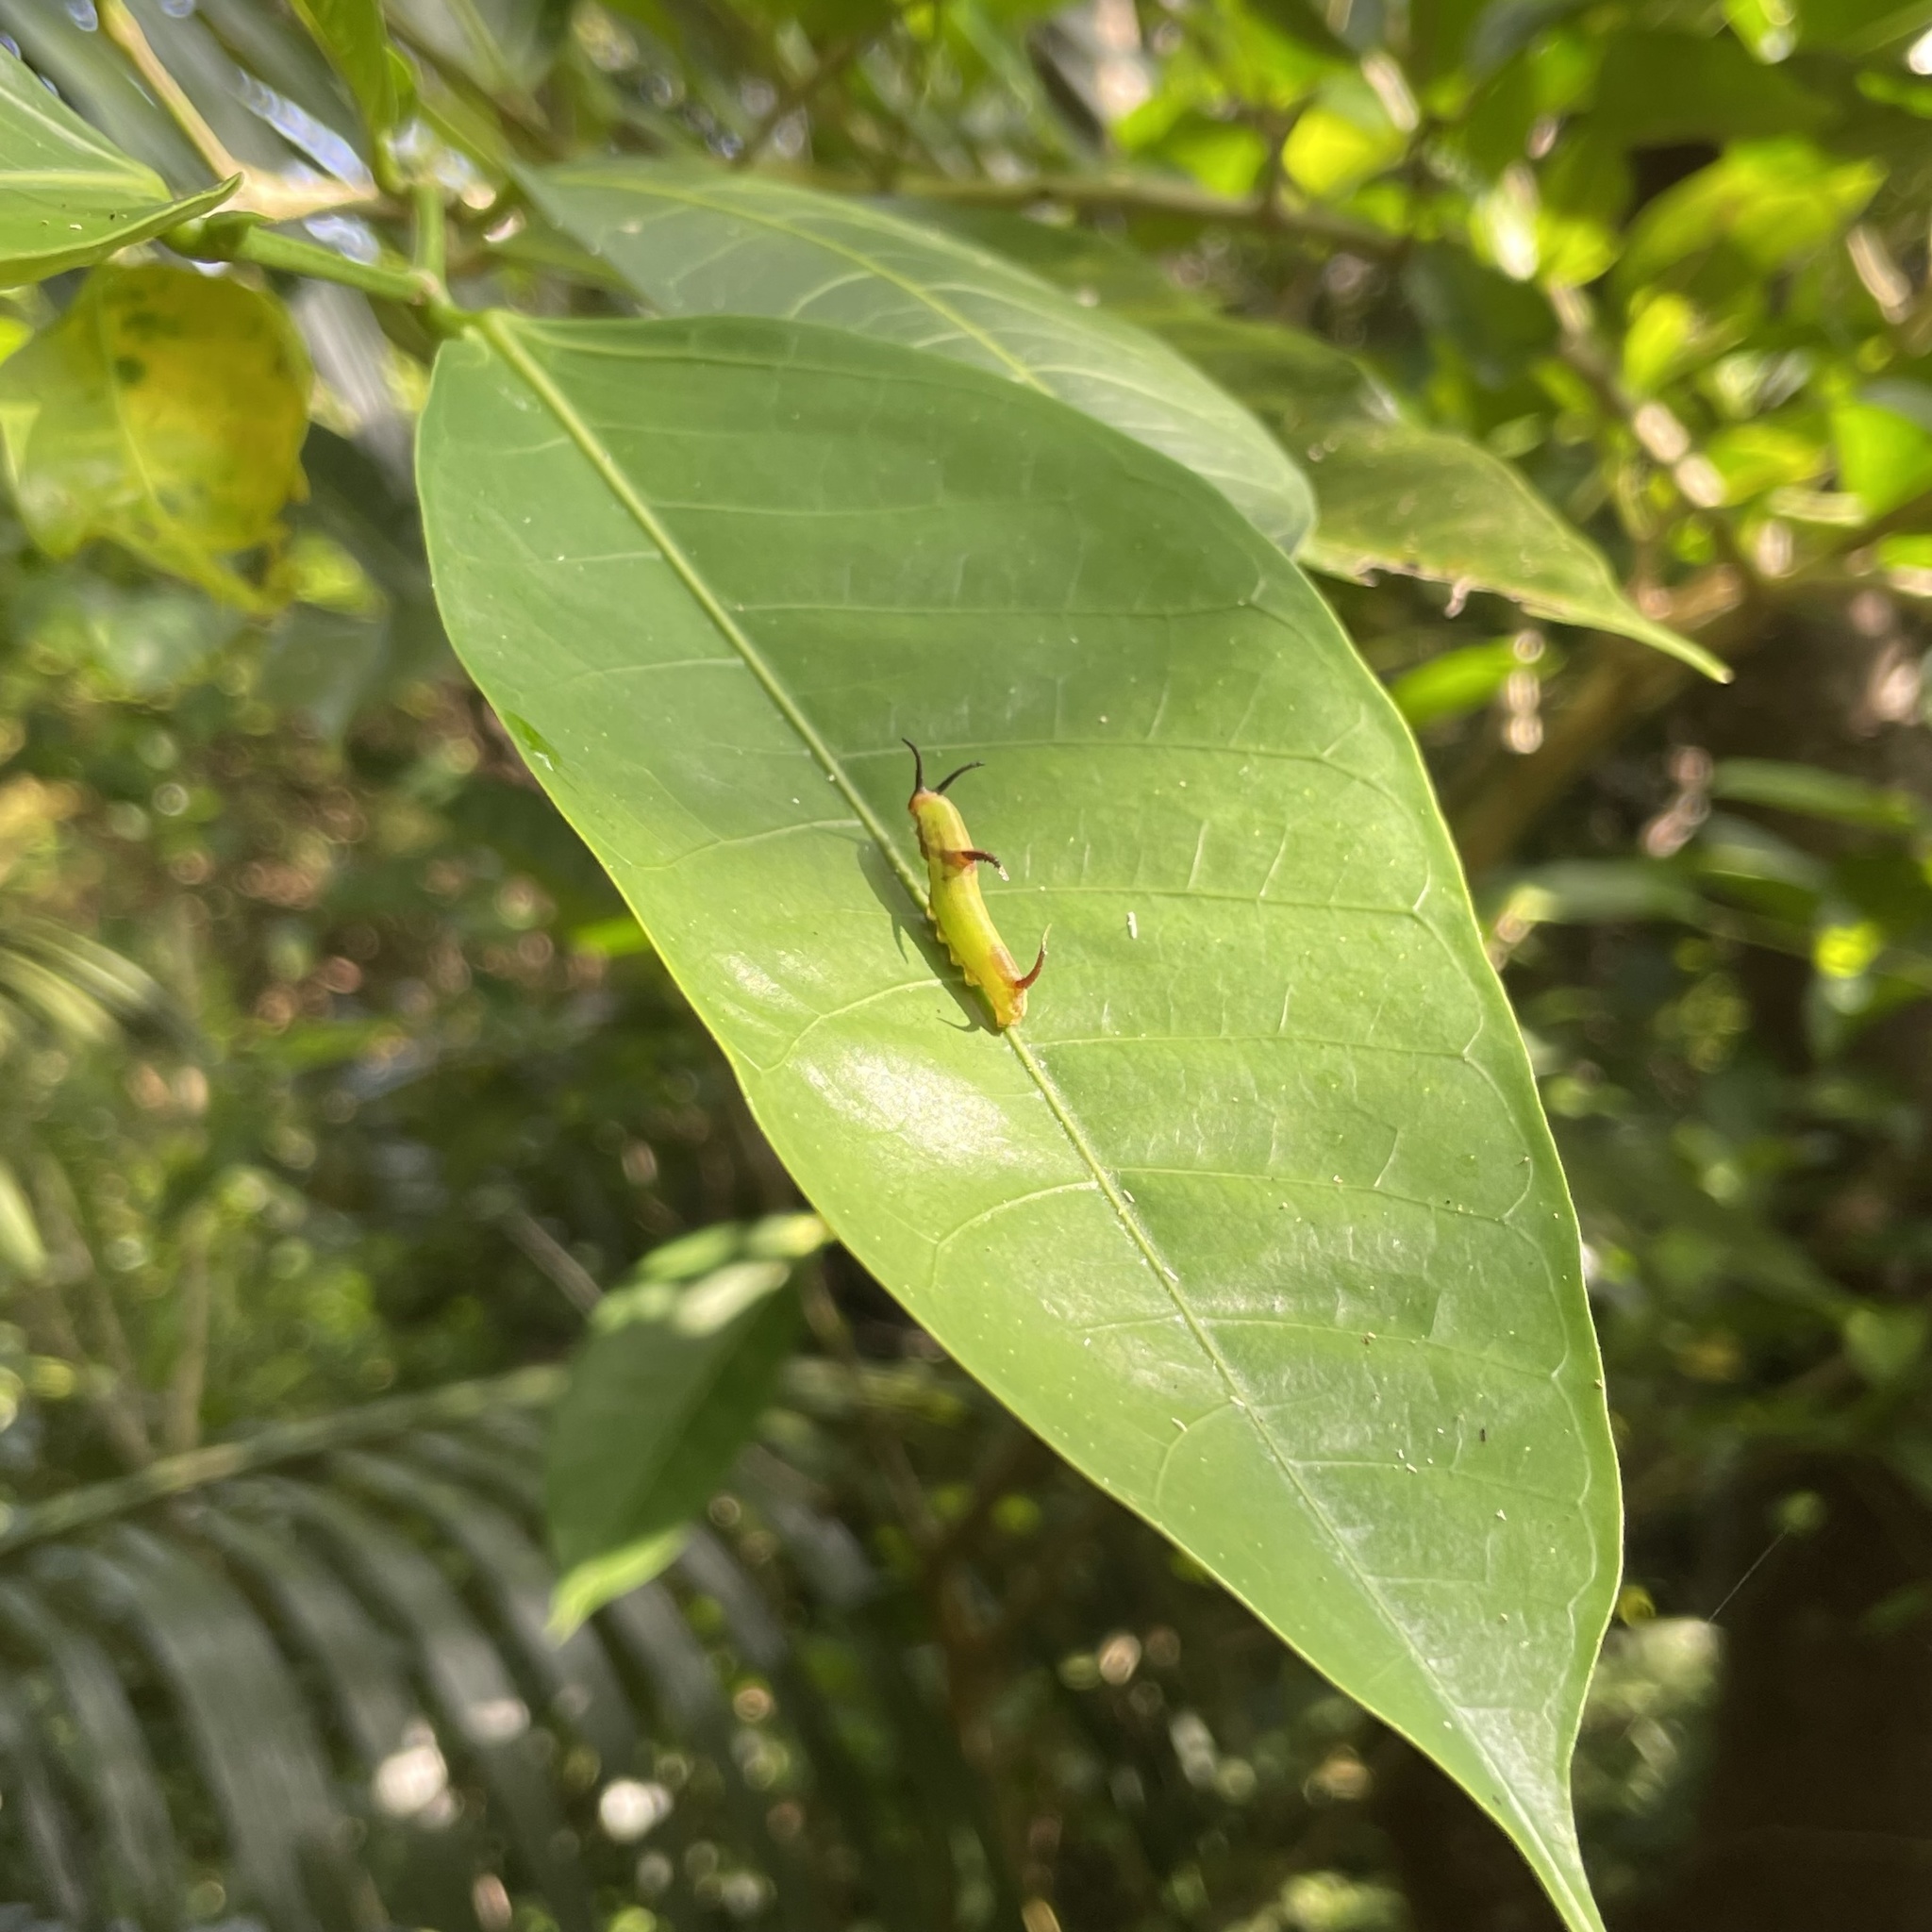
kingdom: Animalia
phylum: Arthropoda
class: Insecta
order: Lepidoptera
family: Nymphalidae
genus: Cyrestis
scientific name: Cyrestis thyodamas
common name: Common mapwing
